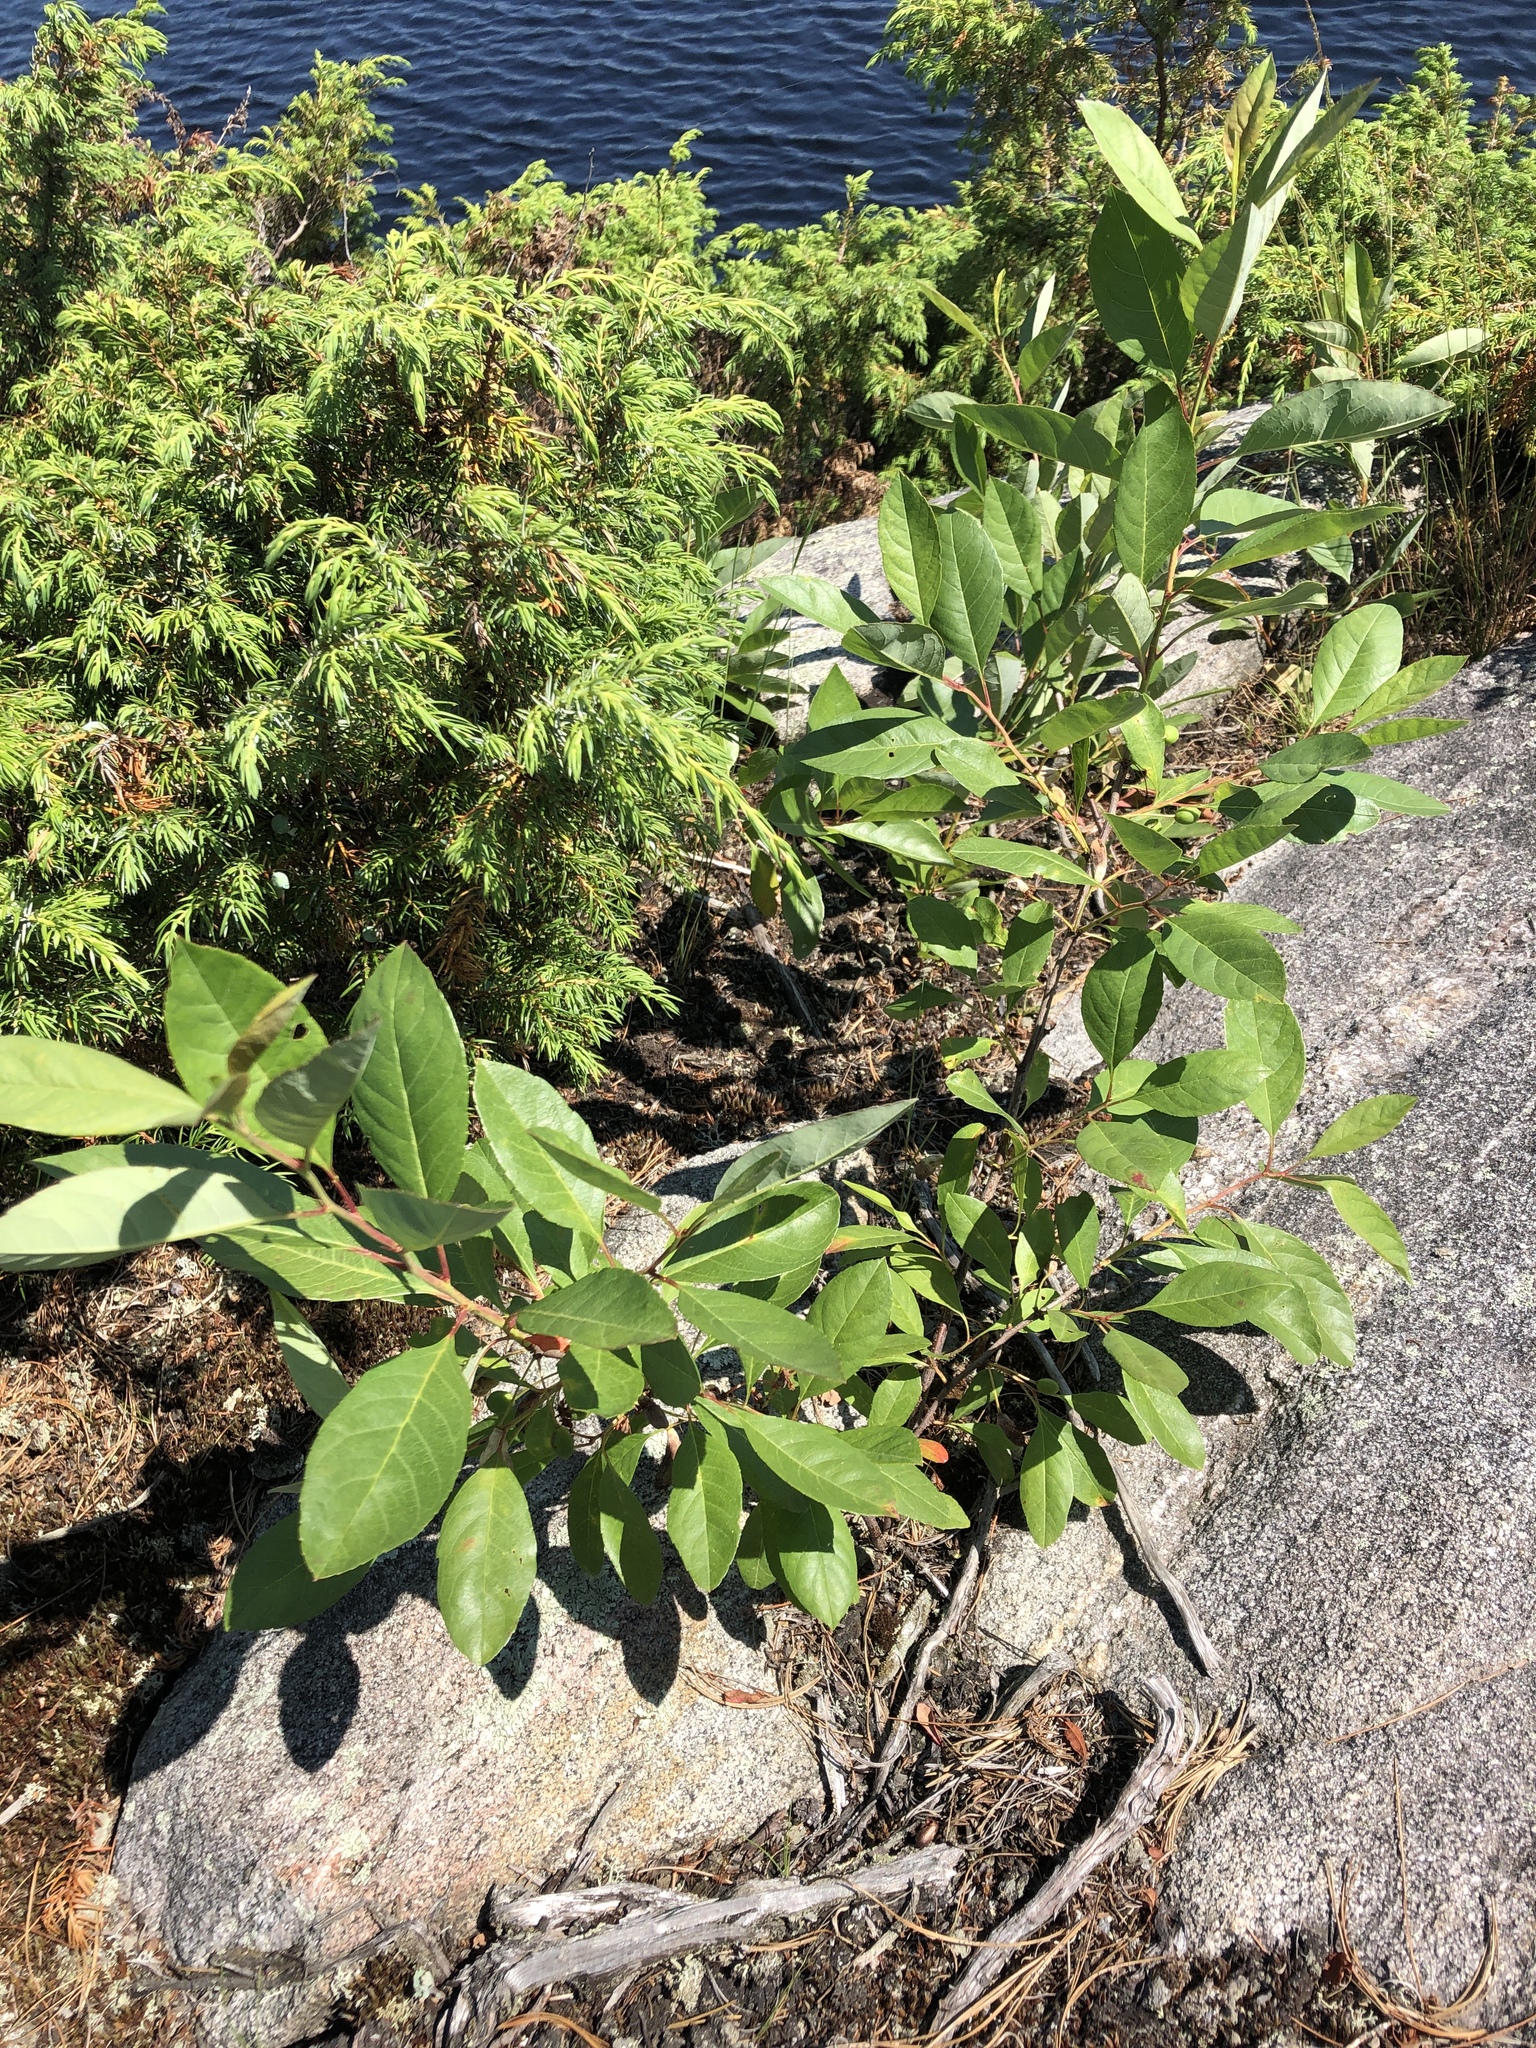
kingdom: Plantae
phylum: Tracheophyta
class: Magnoliopsida
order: Rosales
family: Rosaceae
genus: Prunus
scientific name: Prunus pumila
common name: Dwarf cherry
